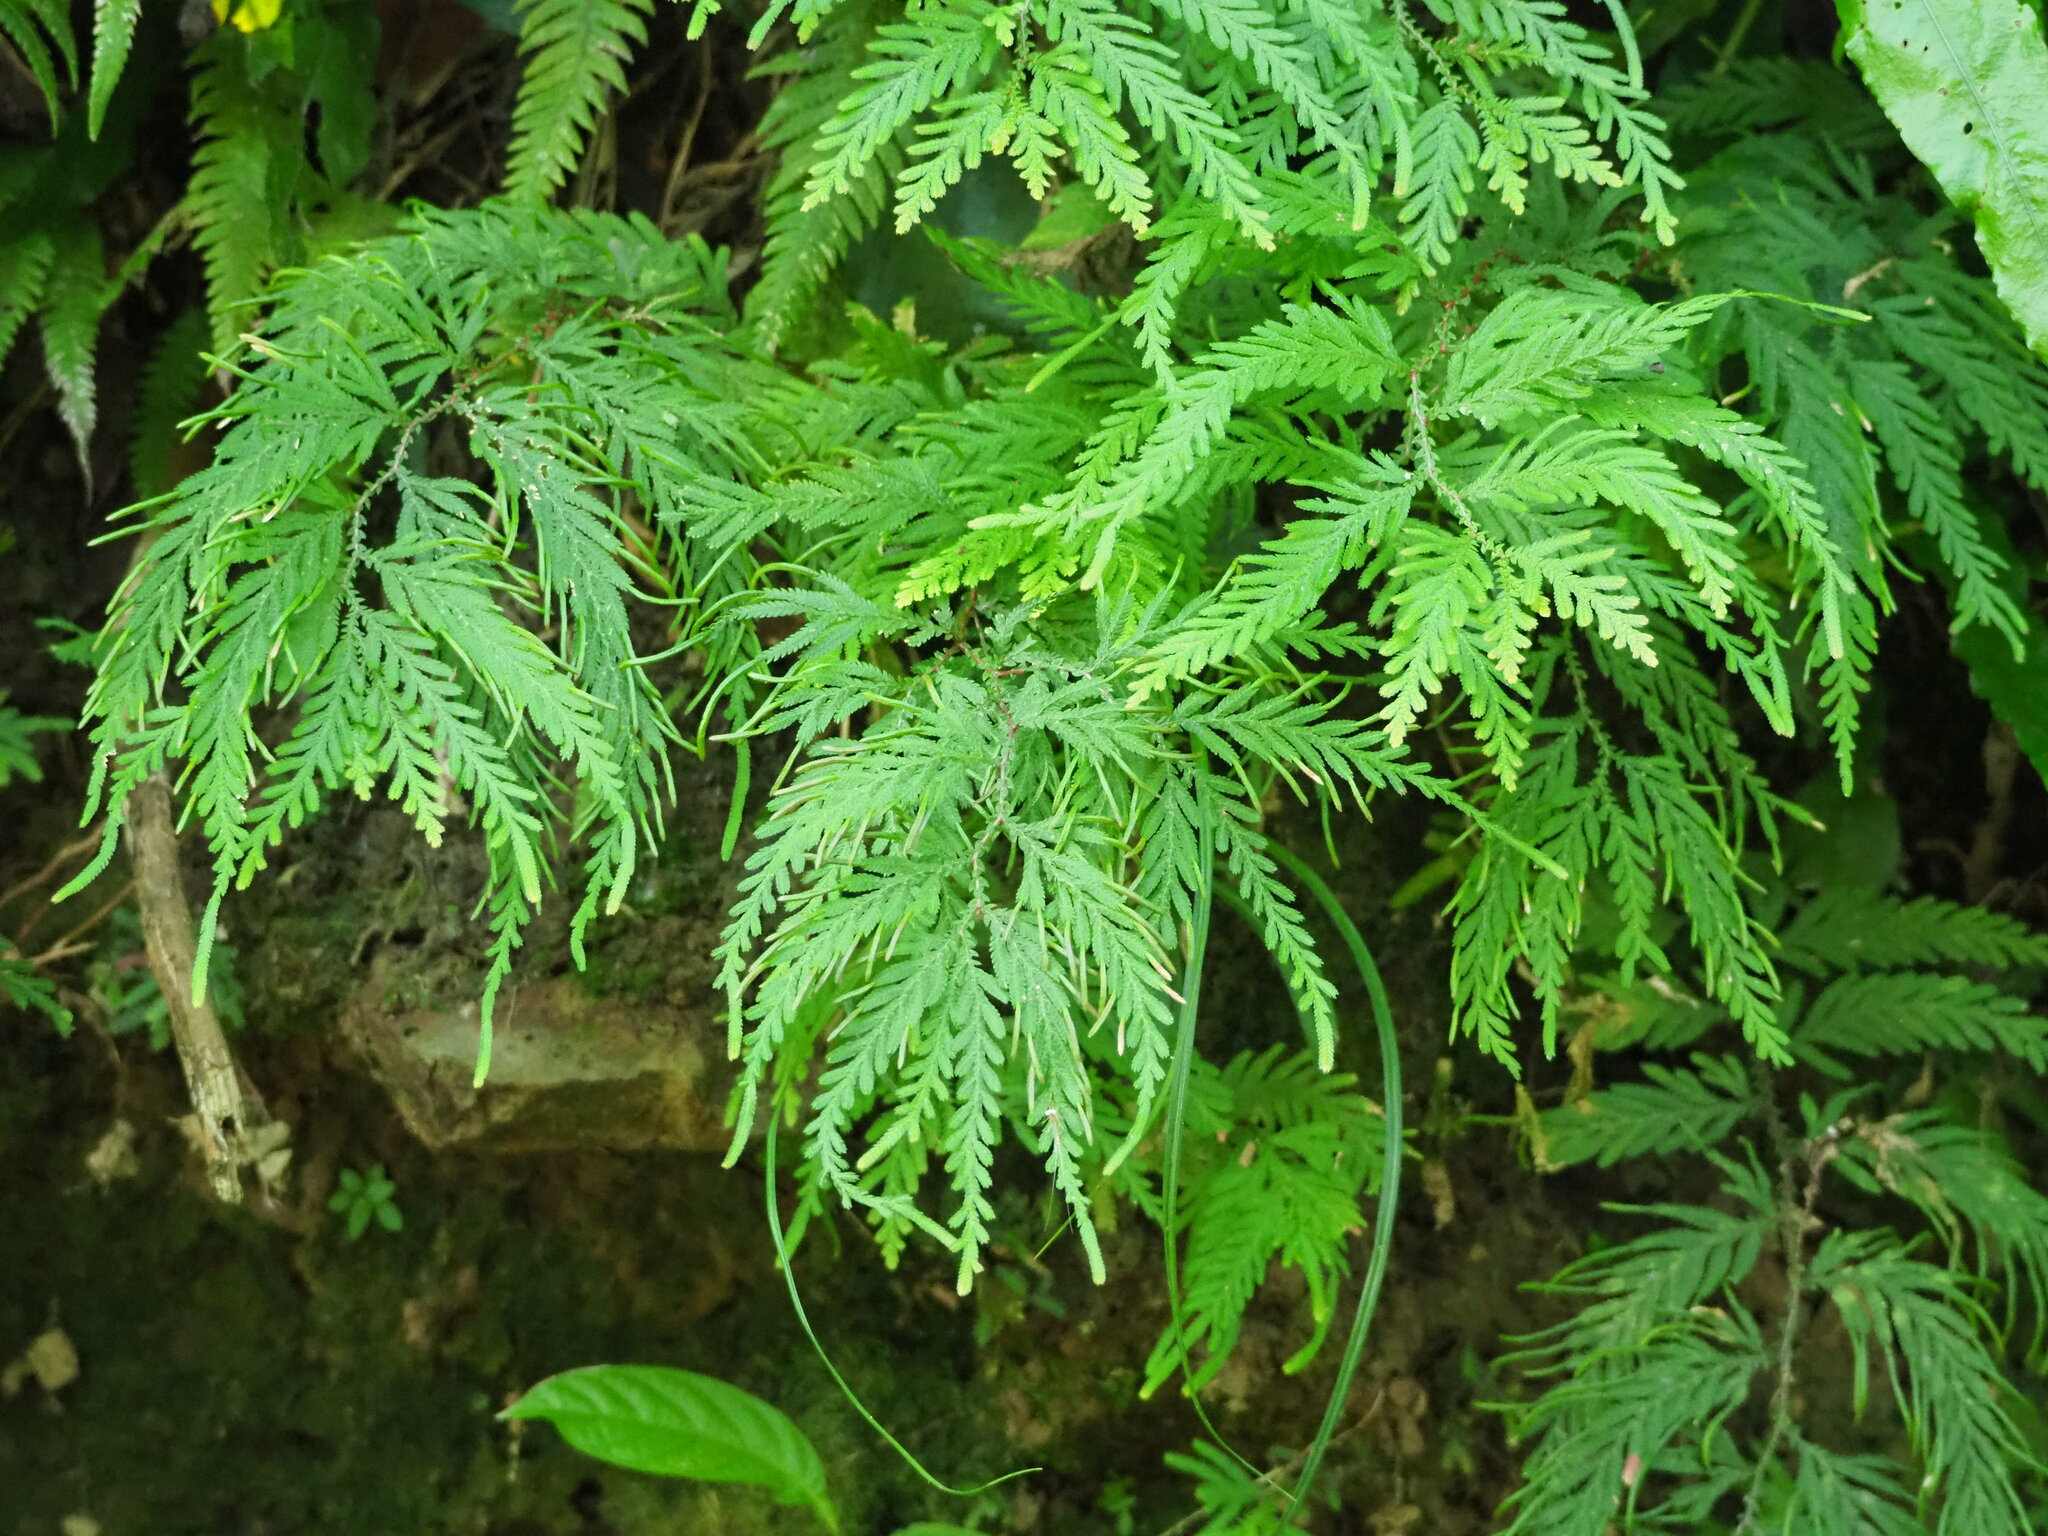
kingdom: Plantae
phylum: Tracheophyta
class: Lycopodiopsida
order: Selaginellales
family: Selaginellaceae
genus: Selaginella
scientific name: Selaginella delicatula
